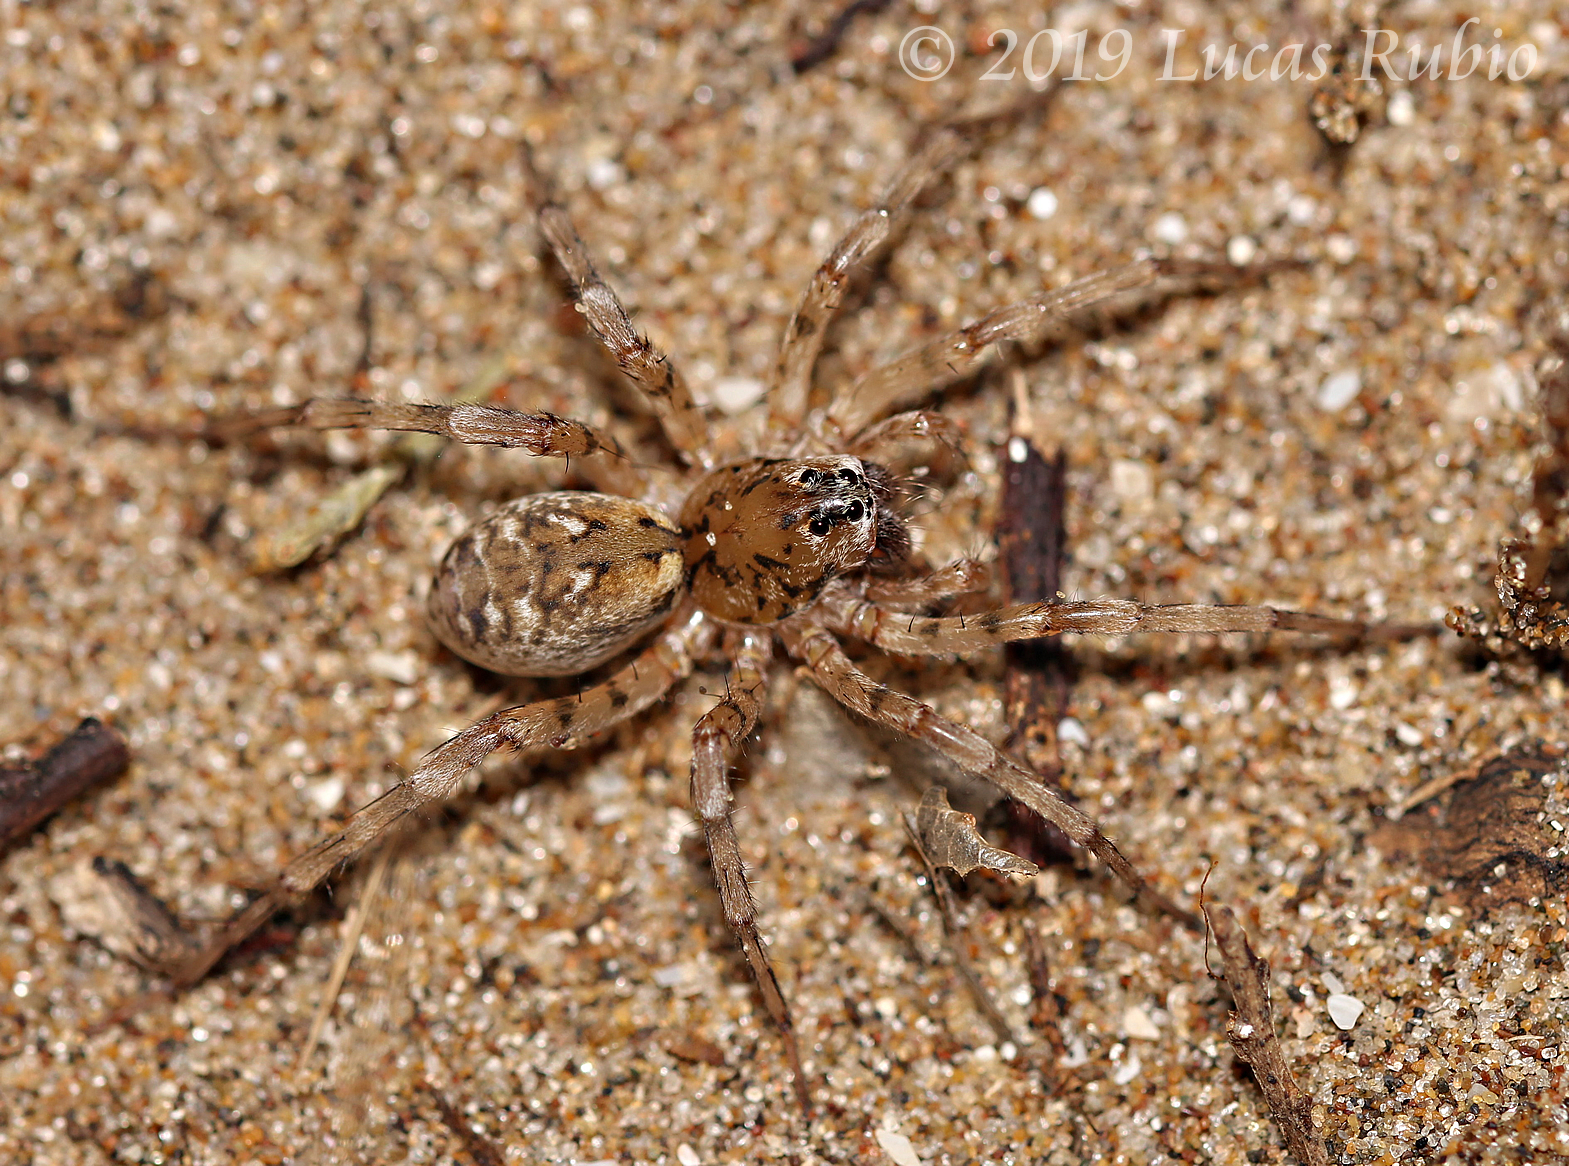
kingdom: Animalia
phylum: Arthropoda
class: Arachnida
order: Araneae
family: Lycosidae
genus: Allocosa
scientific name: Allocosa senex
